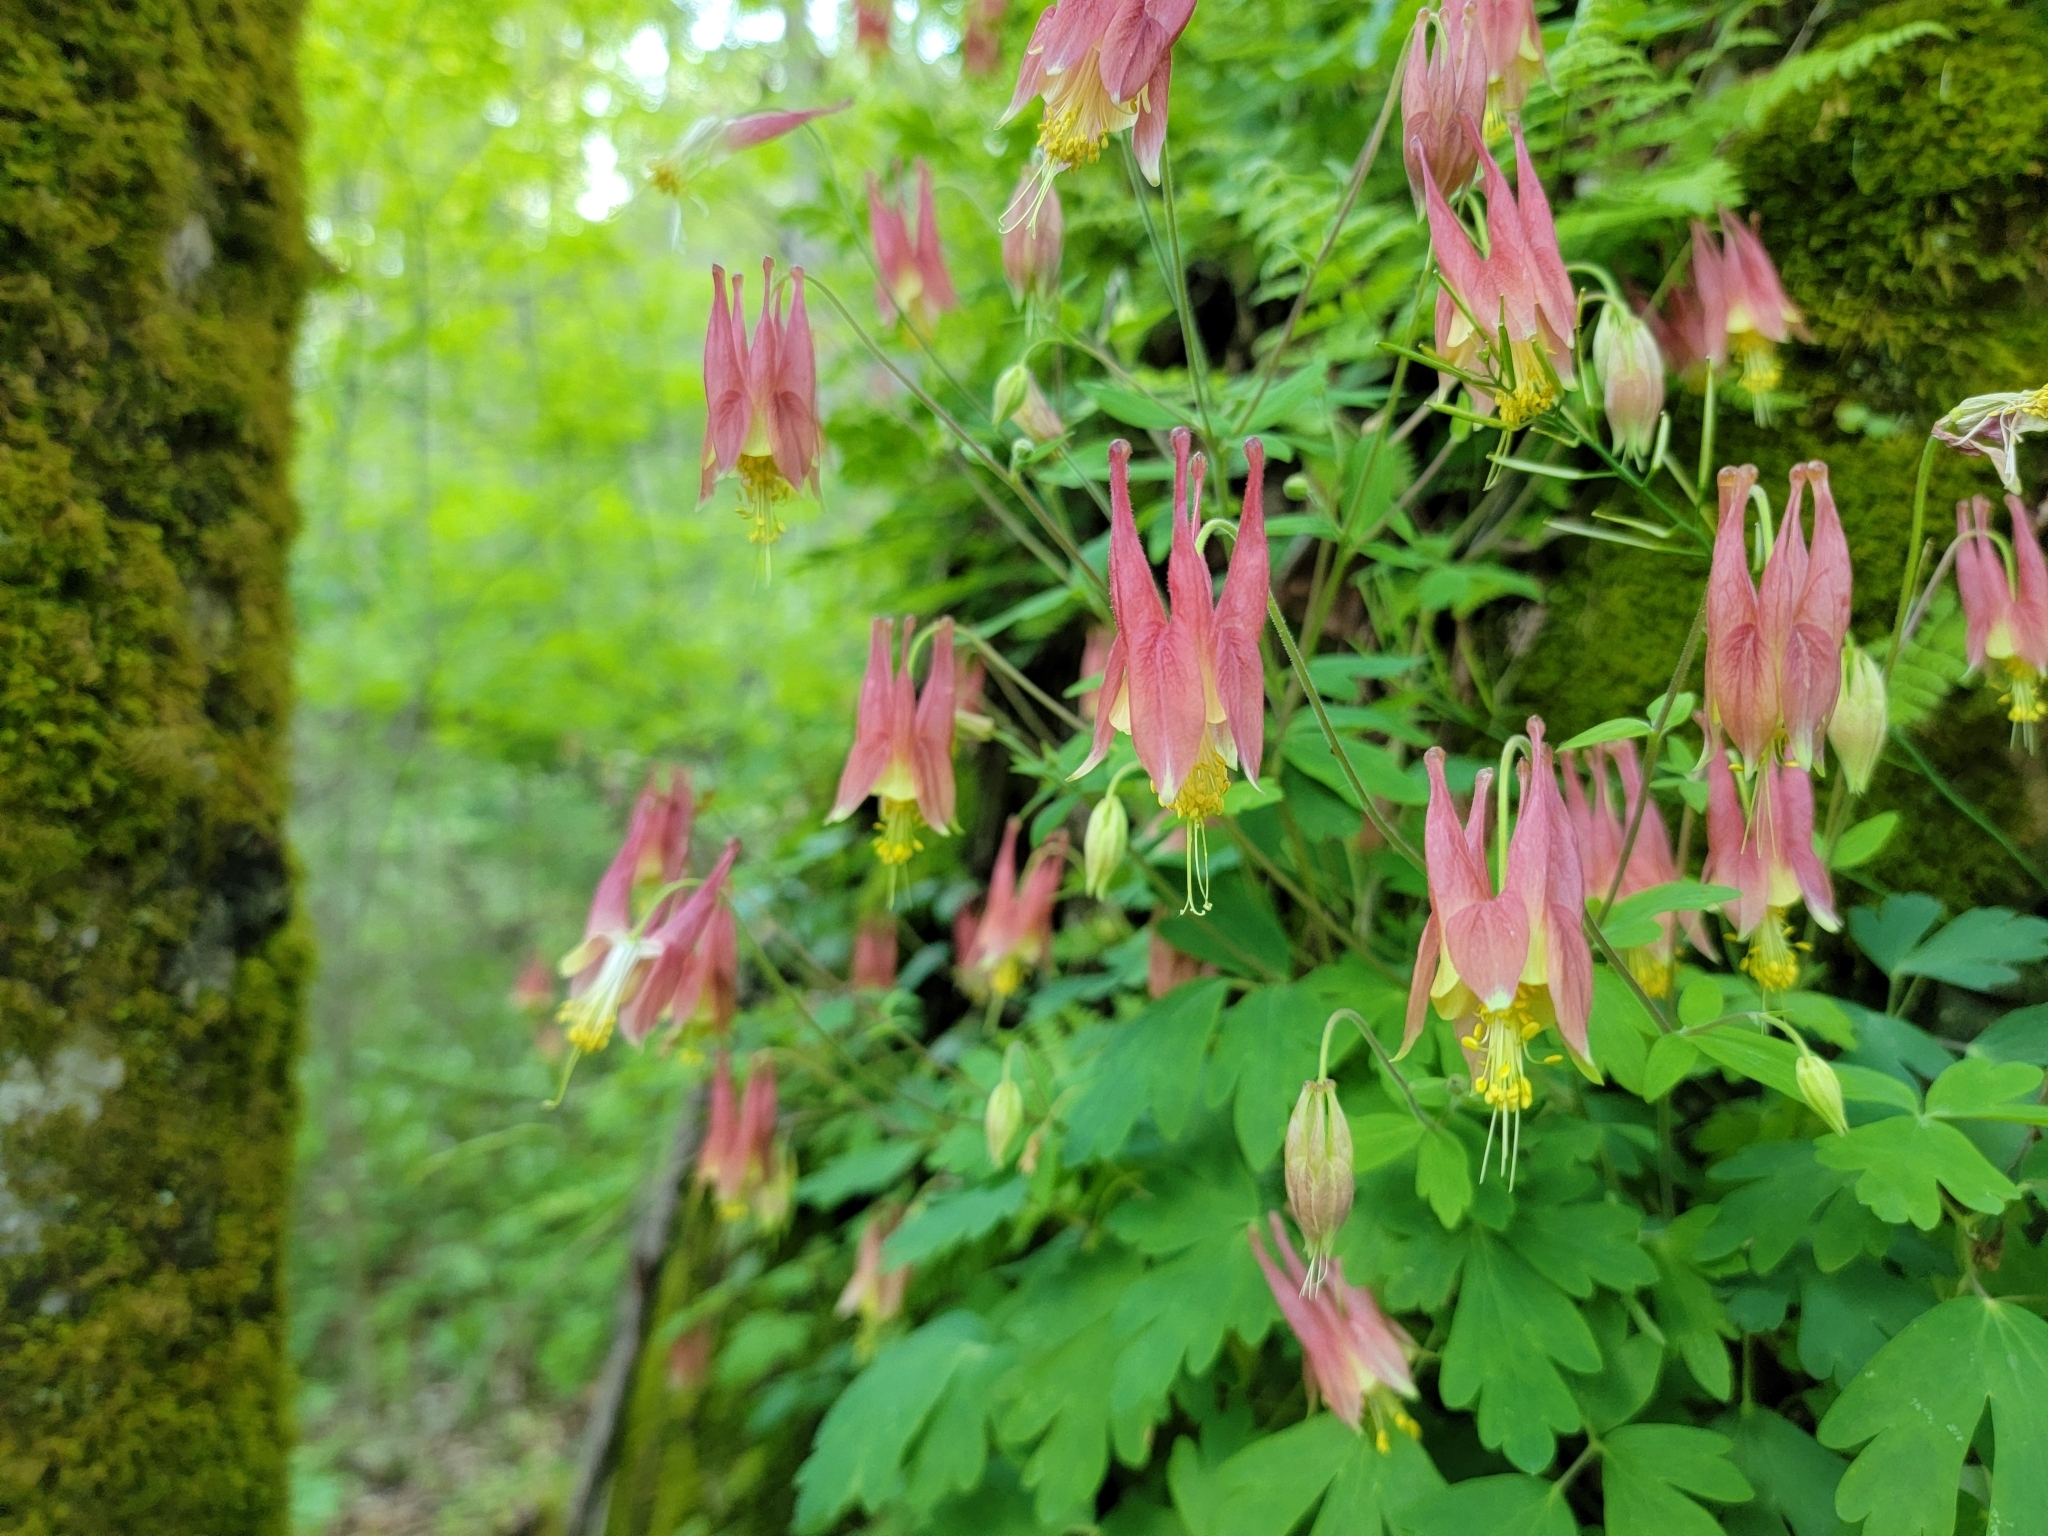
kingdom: Plantae
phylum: Tracheophyta
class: Magnoliopsida
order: Ranunculales
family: Ranunculaceae
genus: Aquilegia
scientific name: Aquilegia canadensis
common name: American columbine
